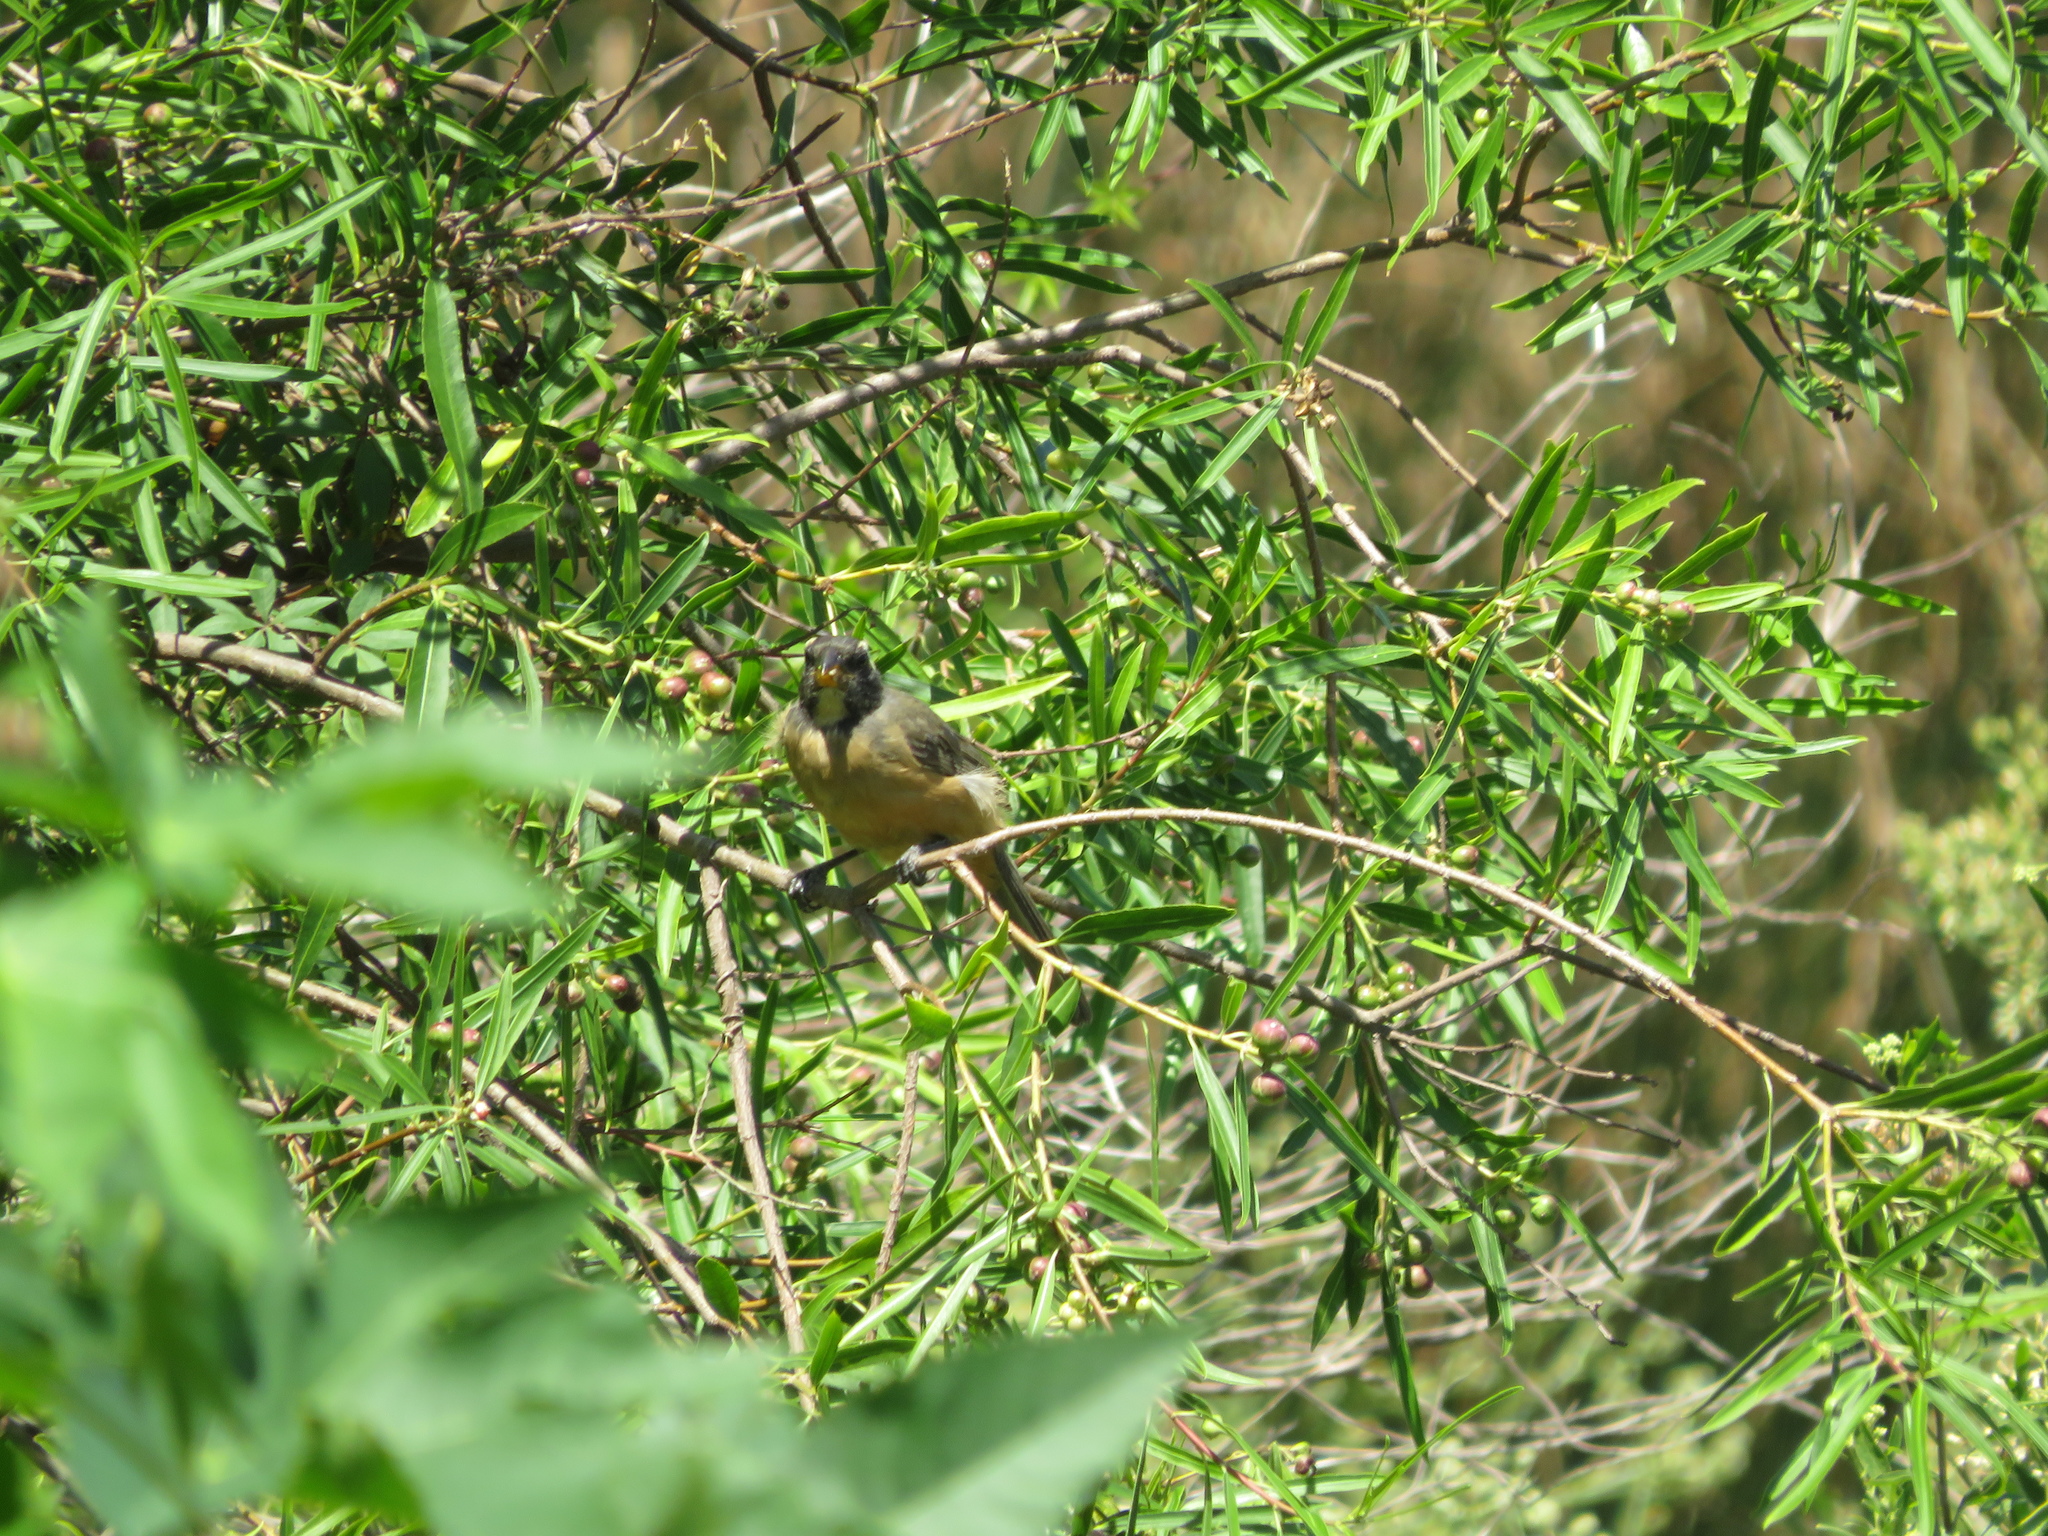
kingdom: Animalia
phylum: Chordata
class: Aves
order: Passeriformes
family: Thraupidae
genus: Saltator
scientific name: Saltator aurantiirostris
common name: Golden-billed saltator
